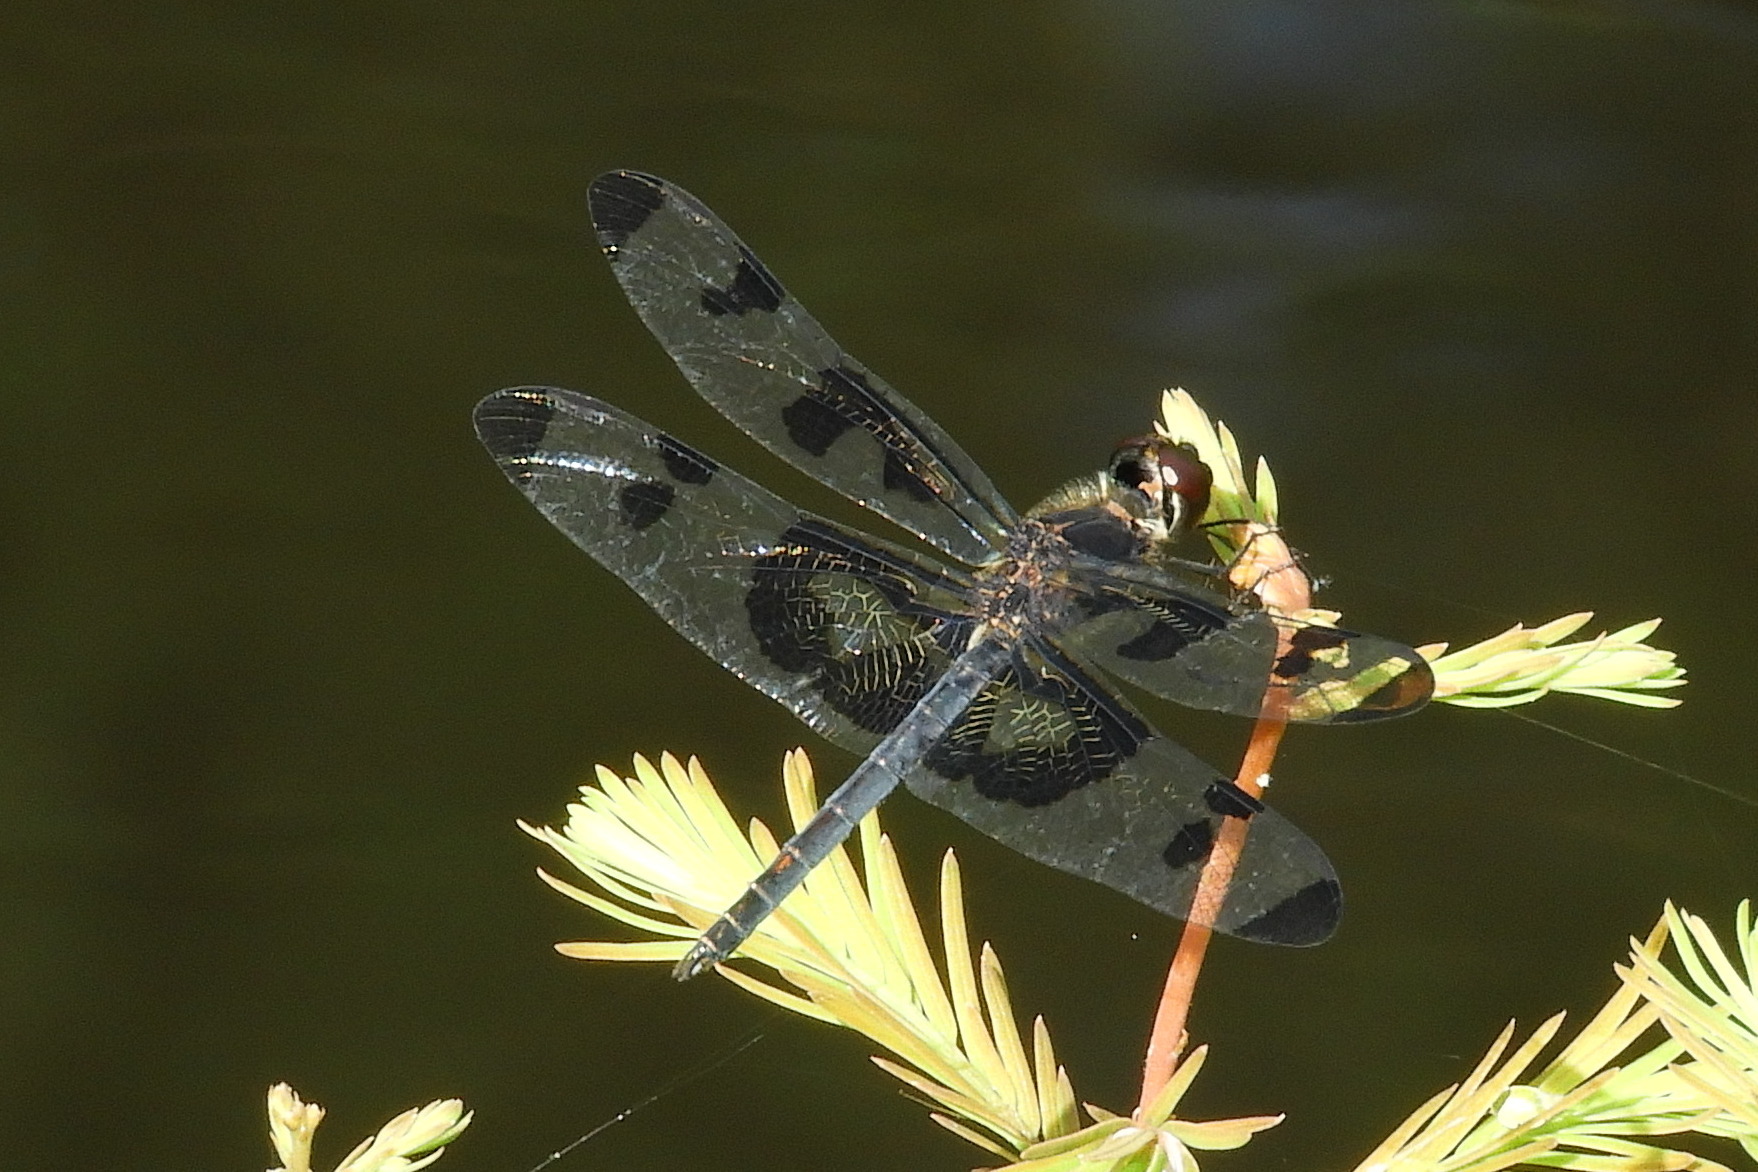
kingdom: Animalia
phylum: Arthropoda
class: Insecta
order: Odonata
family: Libellulidae
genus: Celithemis
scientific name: Celithemis fasciata
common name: Banded pennant
